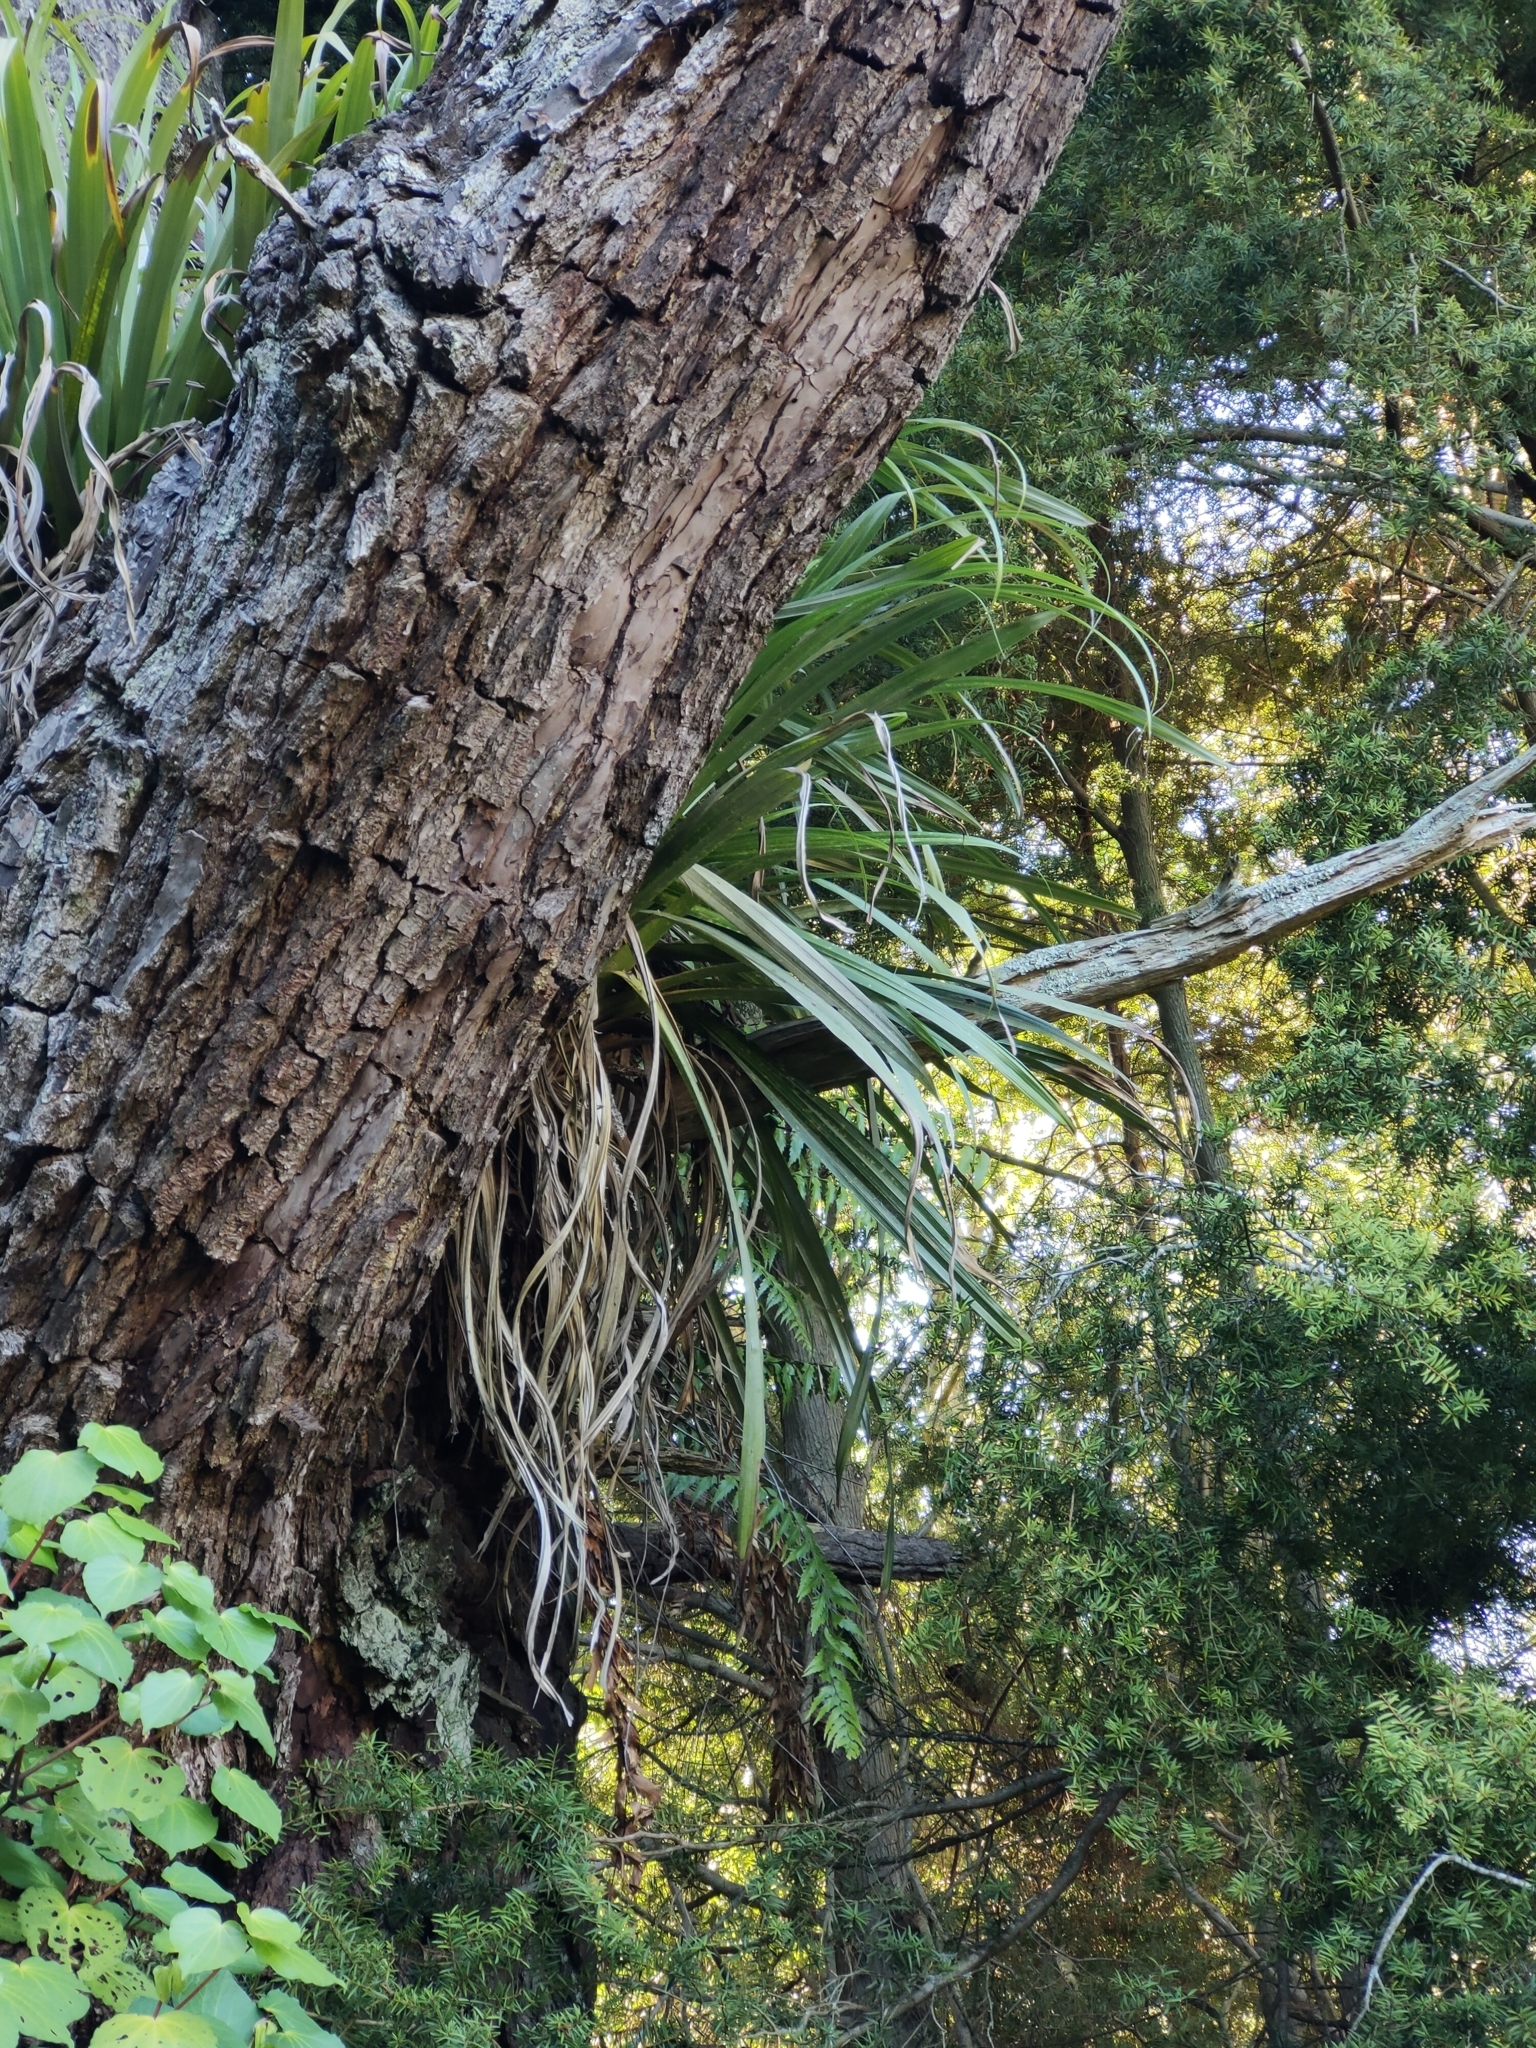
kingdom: Plantae
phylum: Tracheophyta
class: Liliopsida
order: Asparagales
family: Asteliaceae
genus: Astelia
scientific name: Astelia hastata
